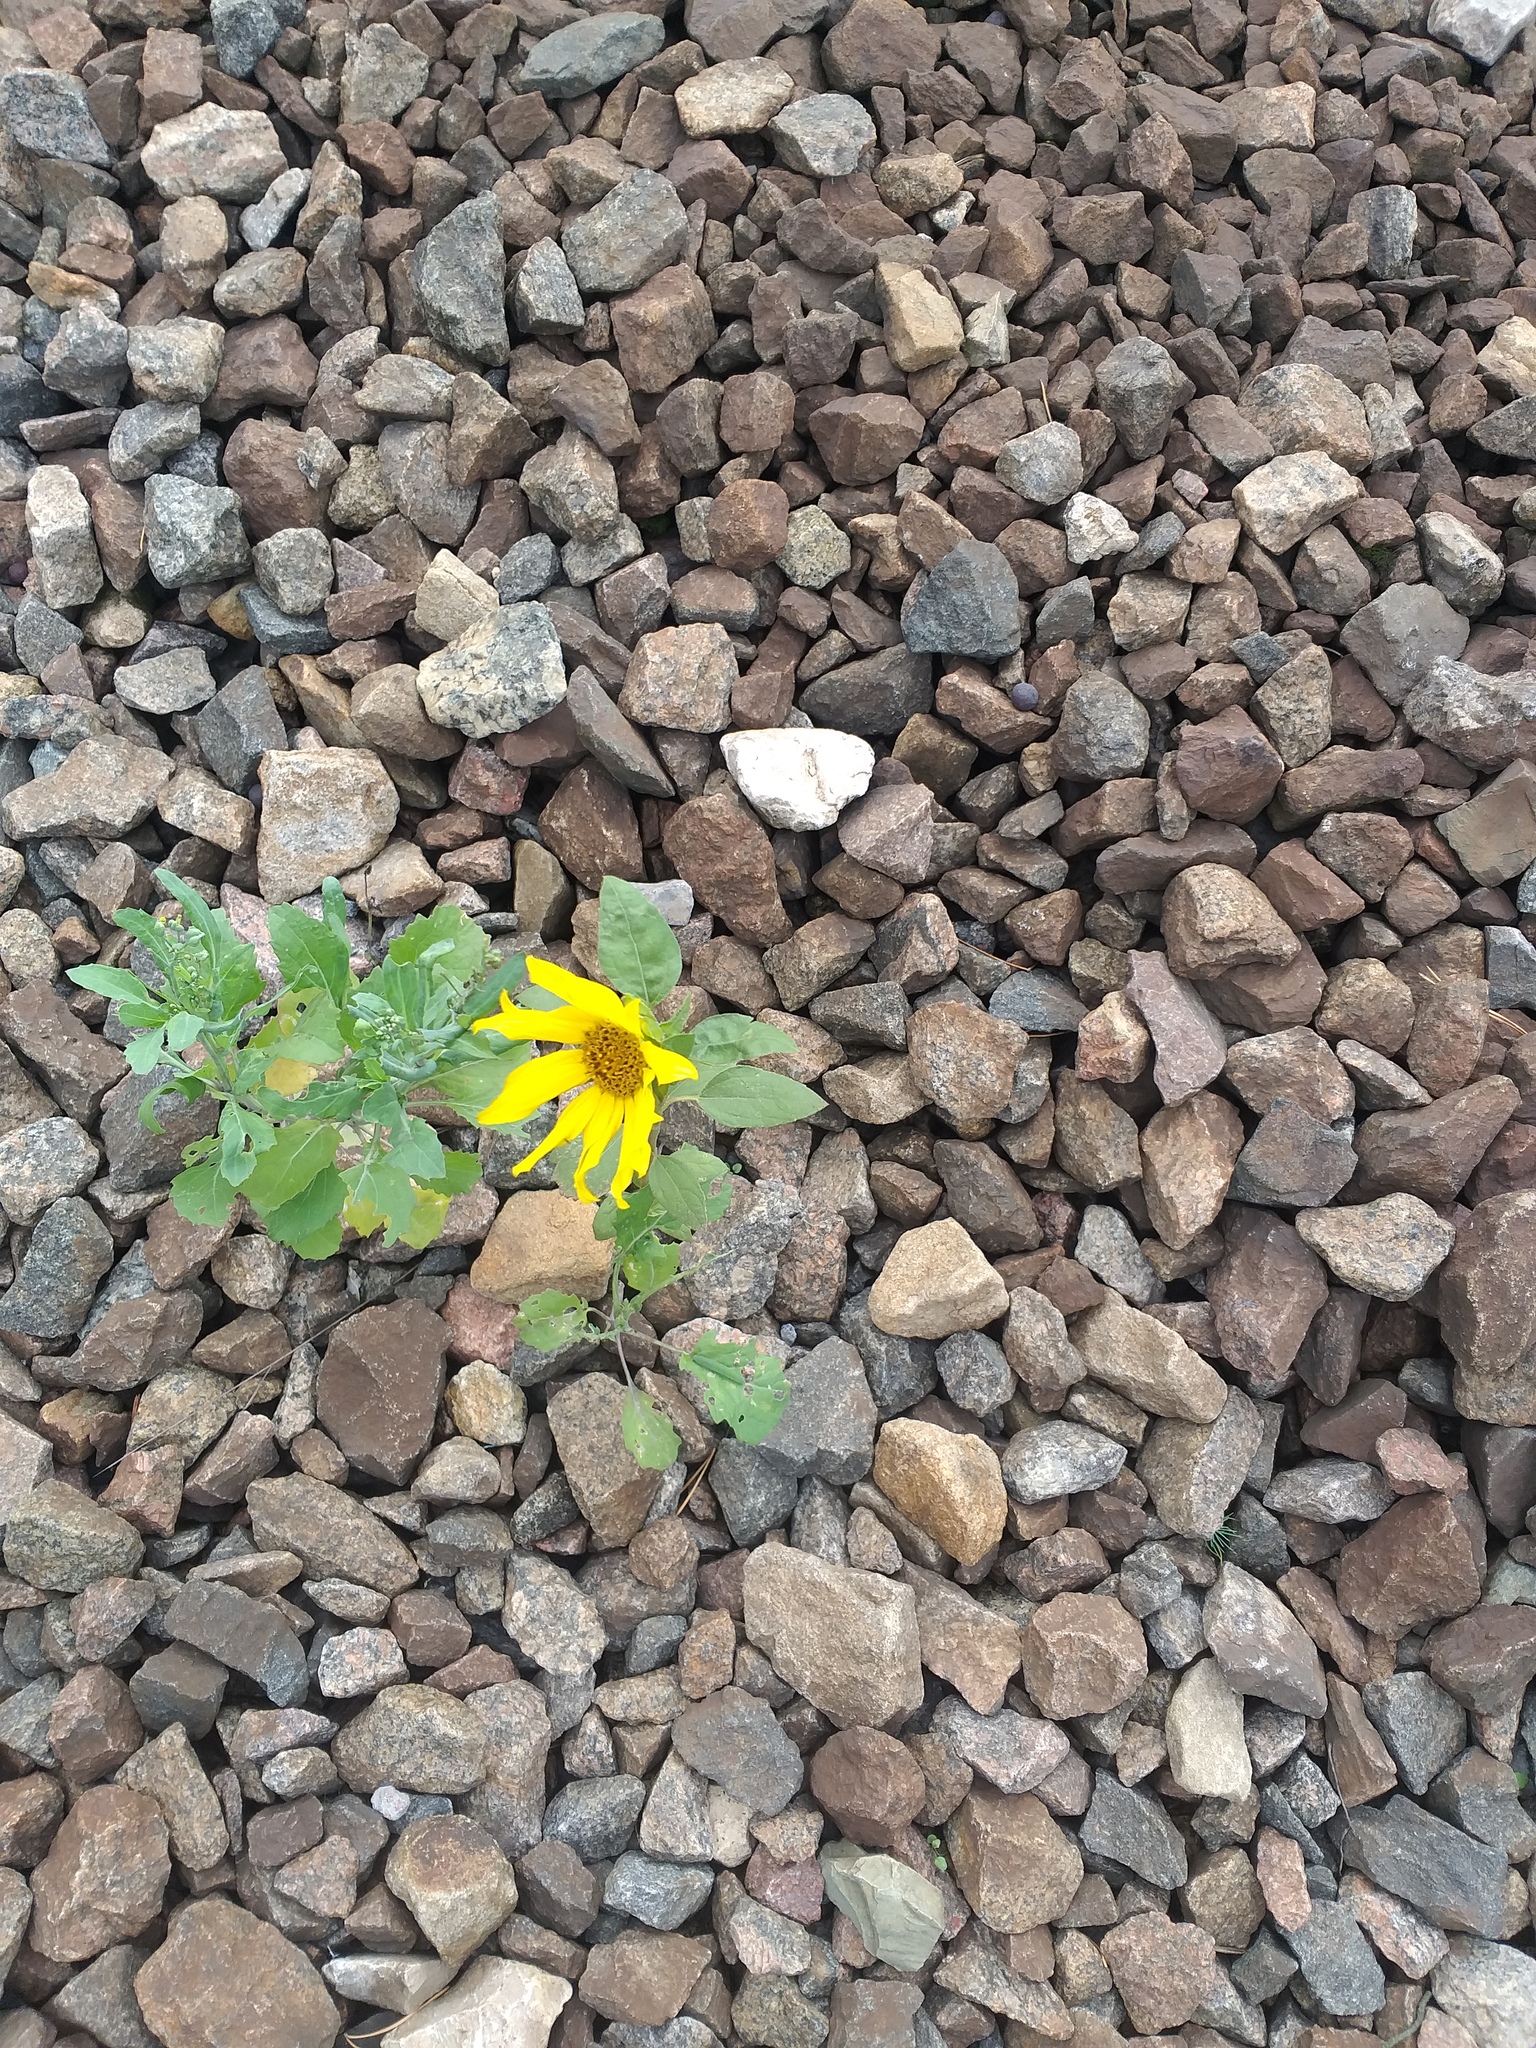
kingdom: Plantae
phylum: Tracheophyta
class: Magnoliopsida
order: Asterales
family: Asteraceae
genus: Helianthus
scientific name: Helianthus annuus
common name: Sunflower
